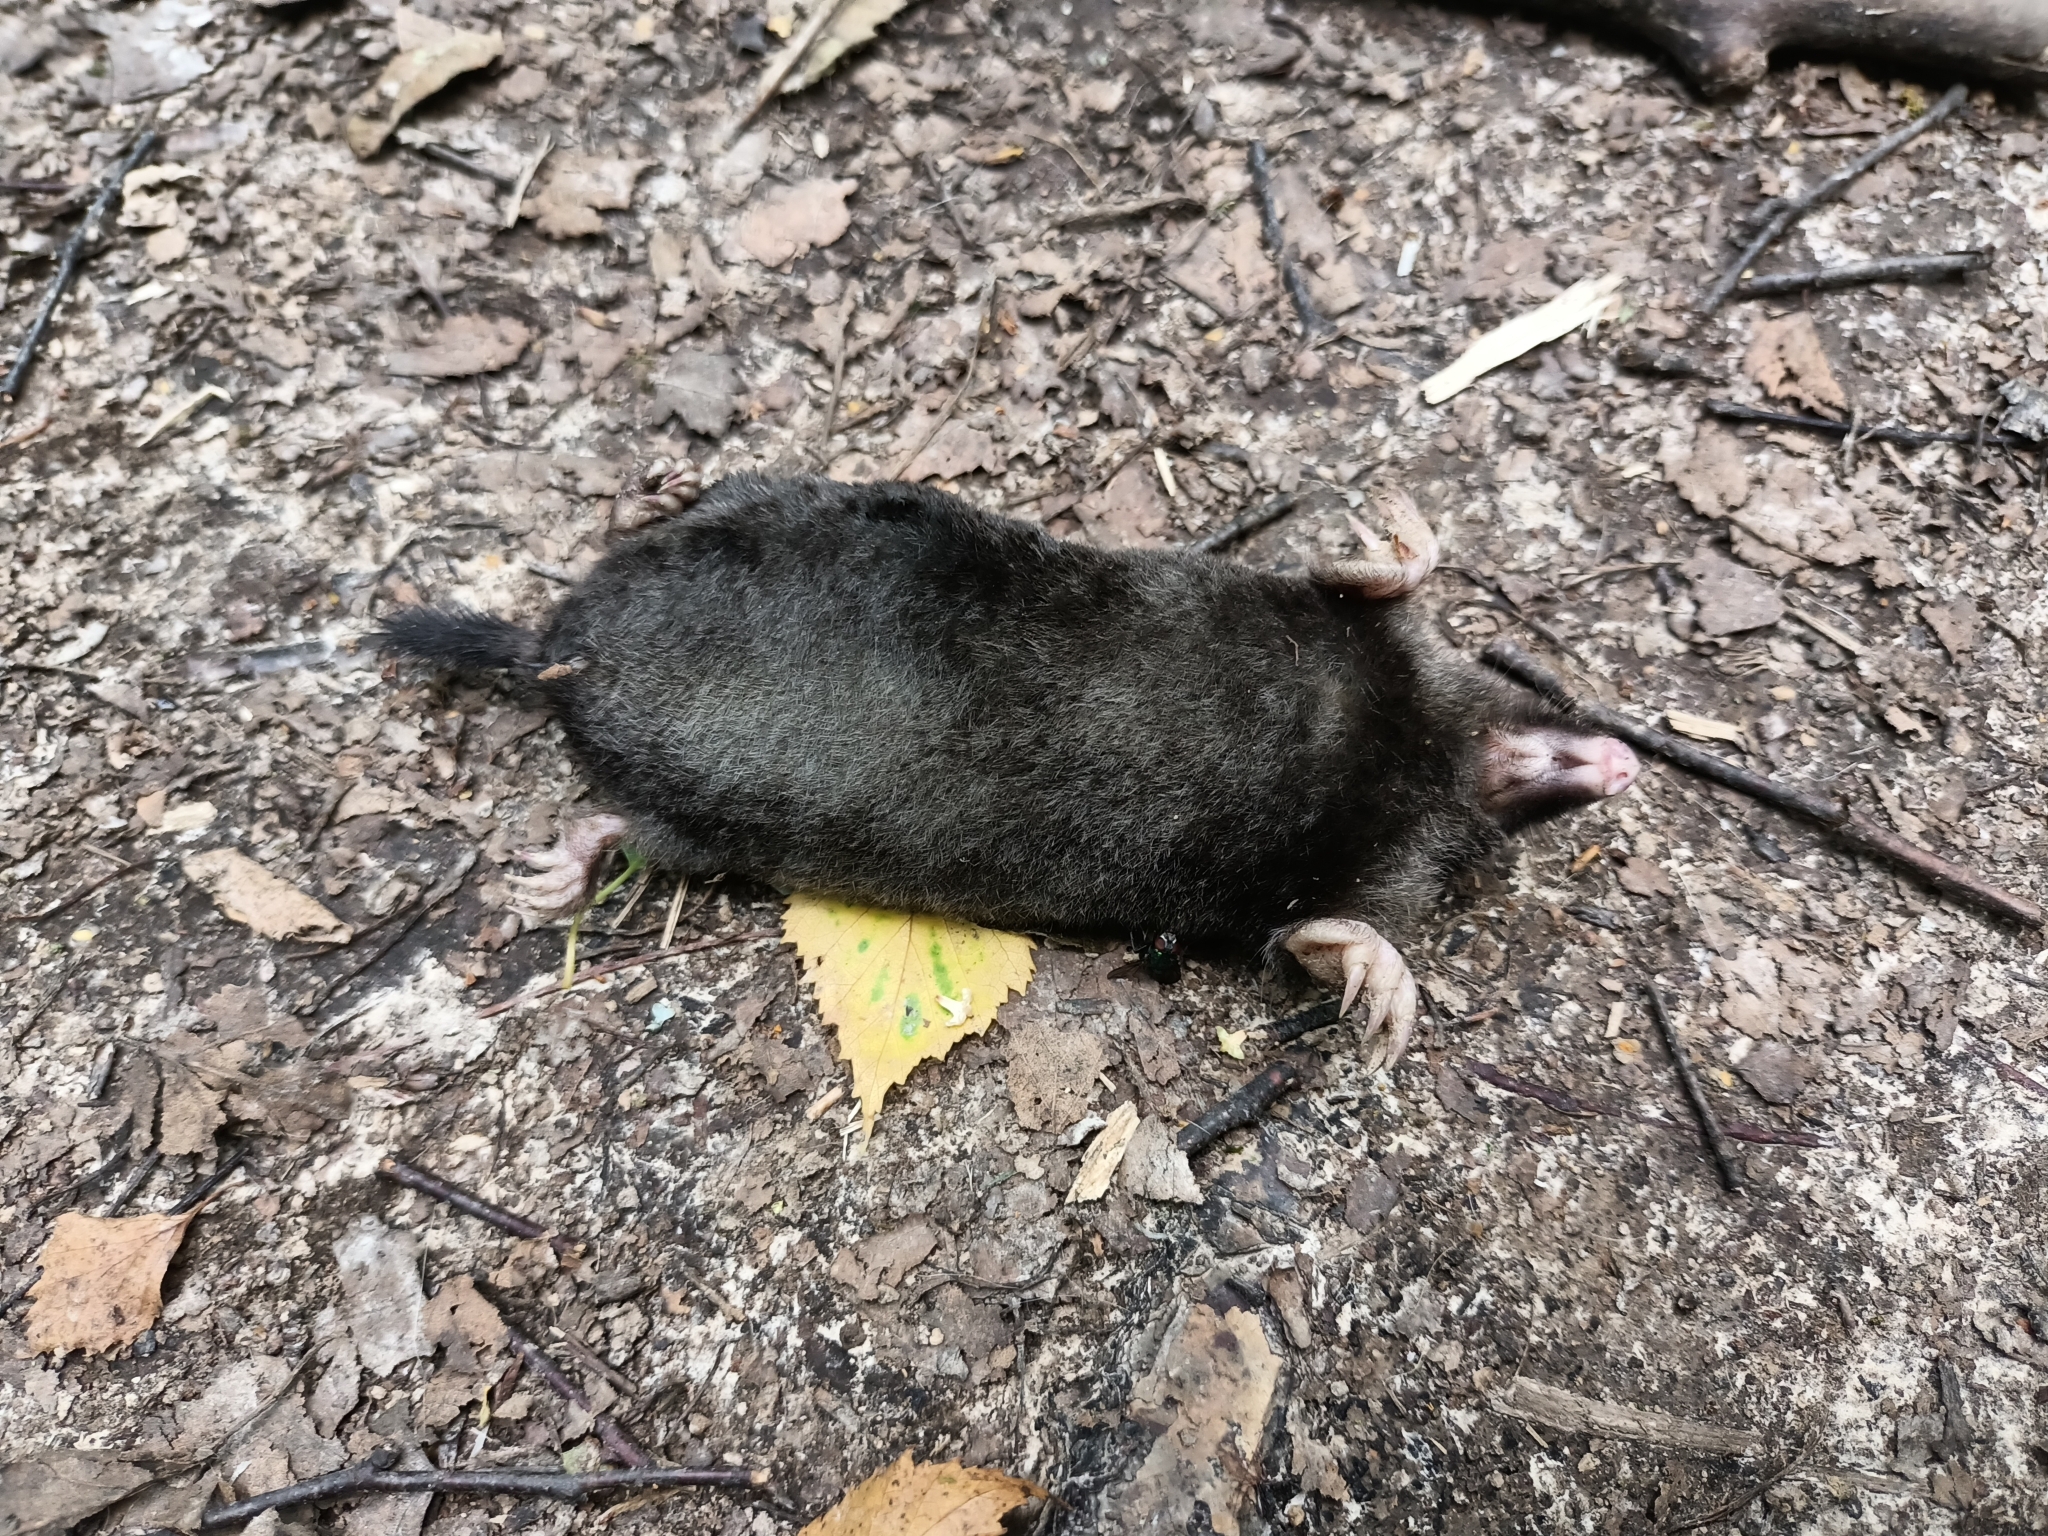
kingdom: Animalia
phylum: Chordata
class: Mammalia
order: Soricomorpha
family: Talpidae
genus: Talpa
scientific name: Talpa europaea
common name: European mole
